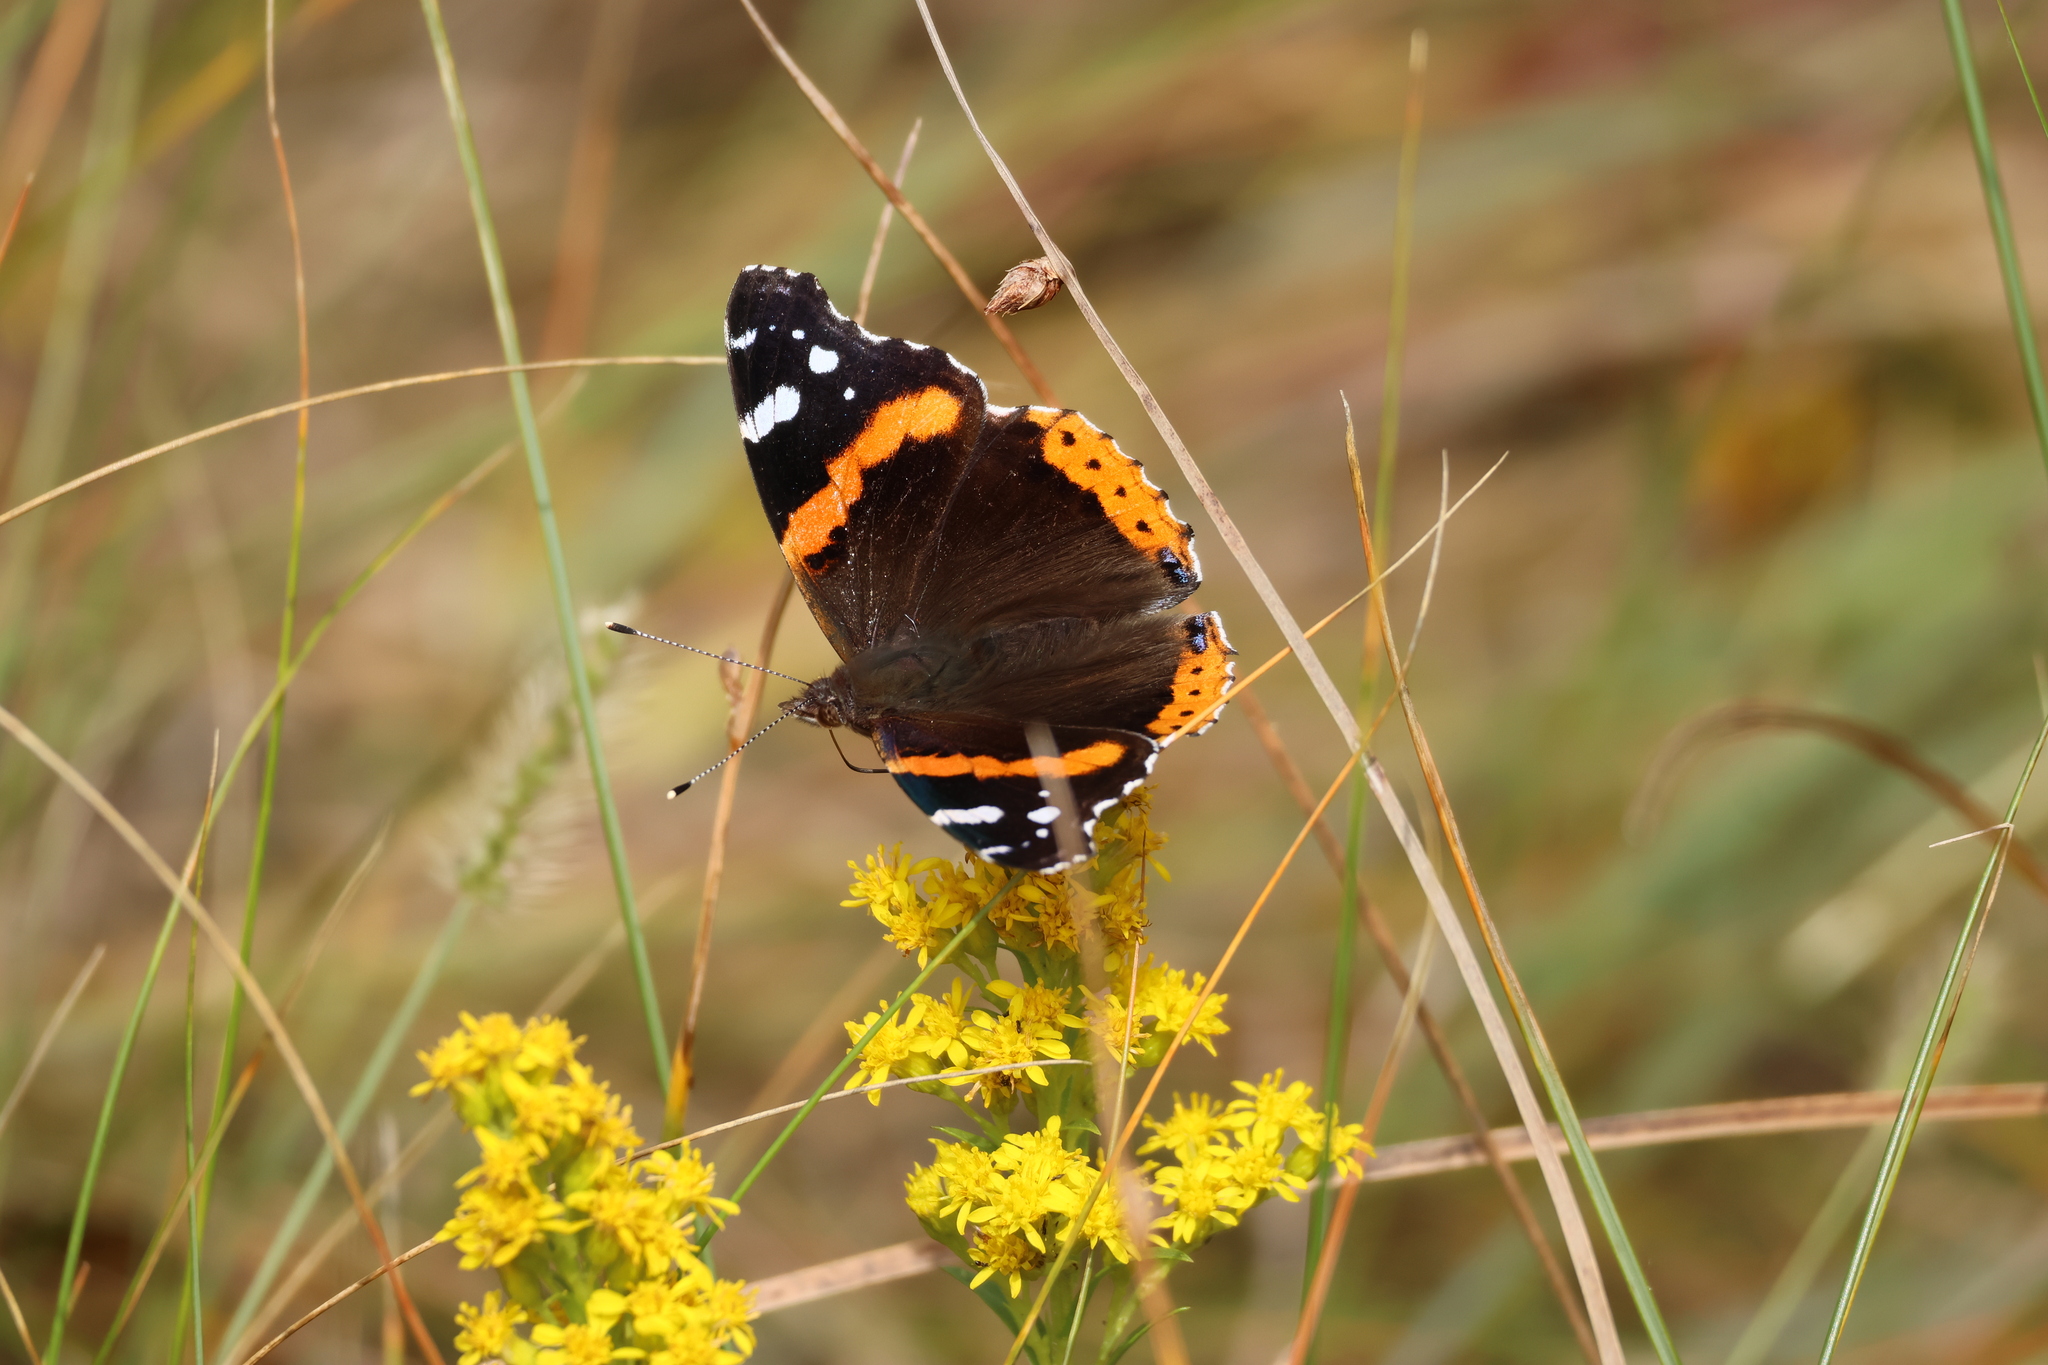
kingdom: Animalia
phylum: Arthropoda
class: Insecta
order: Lepidoptera
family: Nymphalidae
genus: Vanessa
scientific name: Vanessa atalanta
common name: Red admiral
